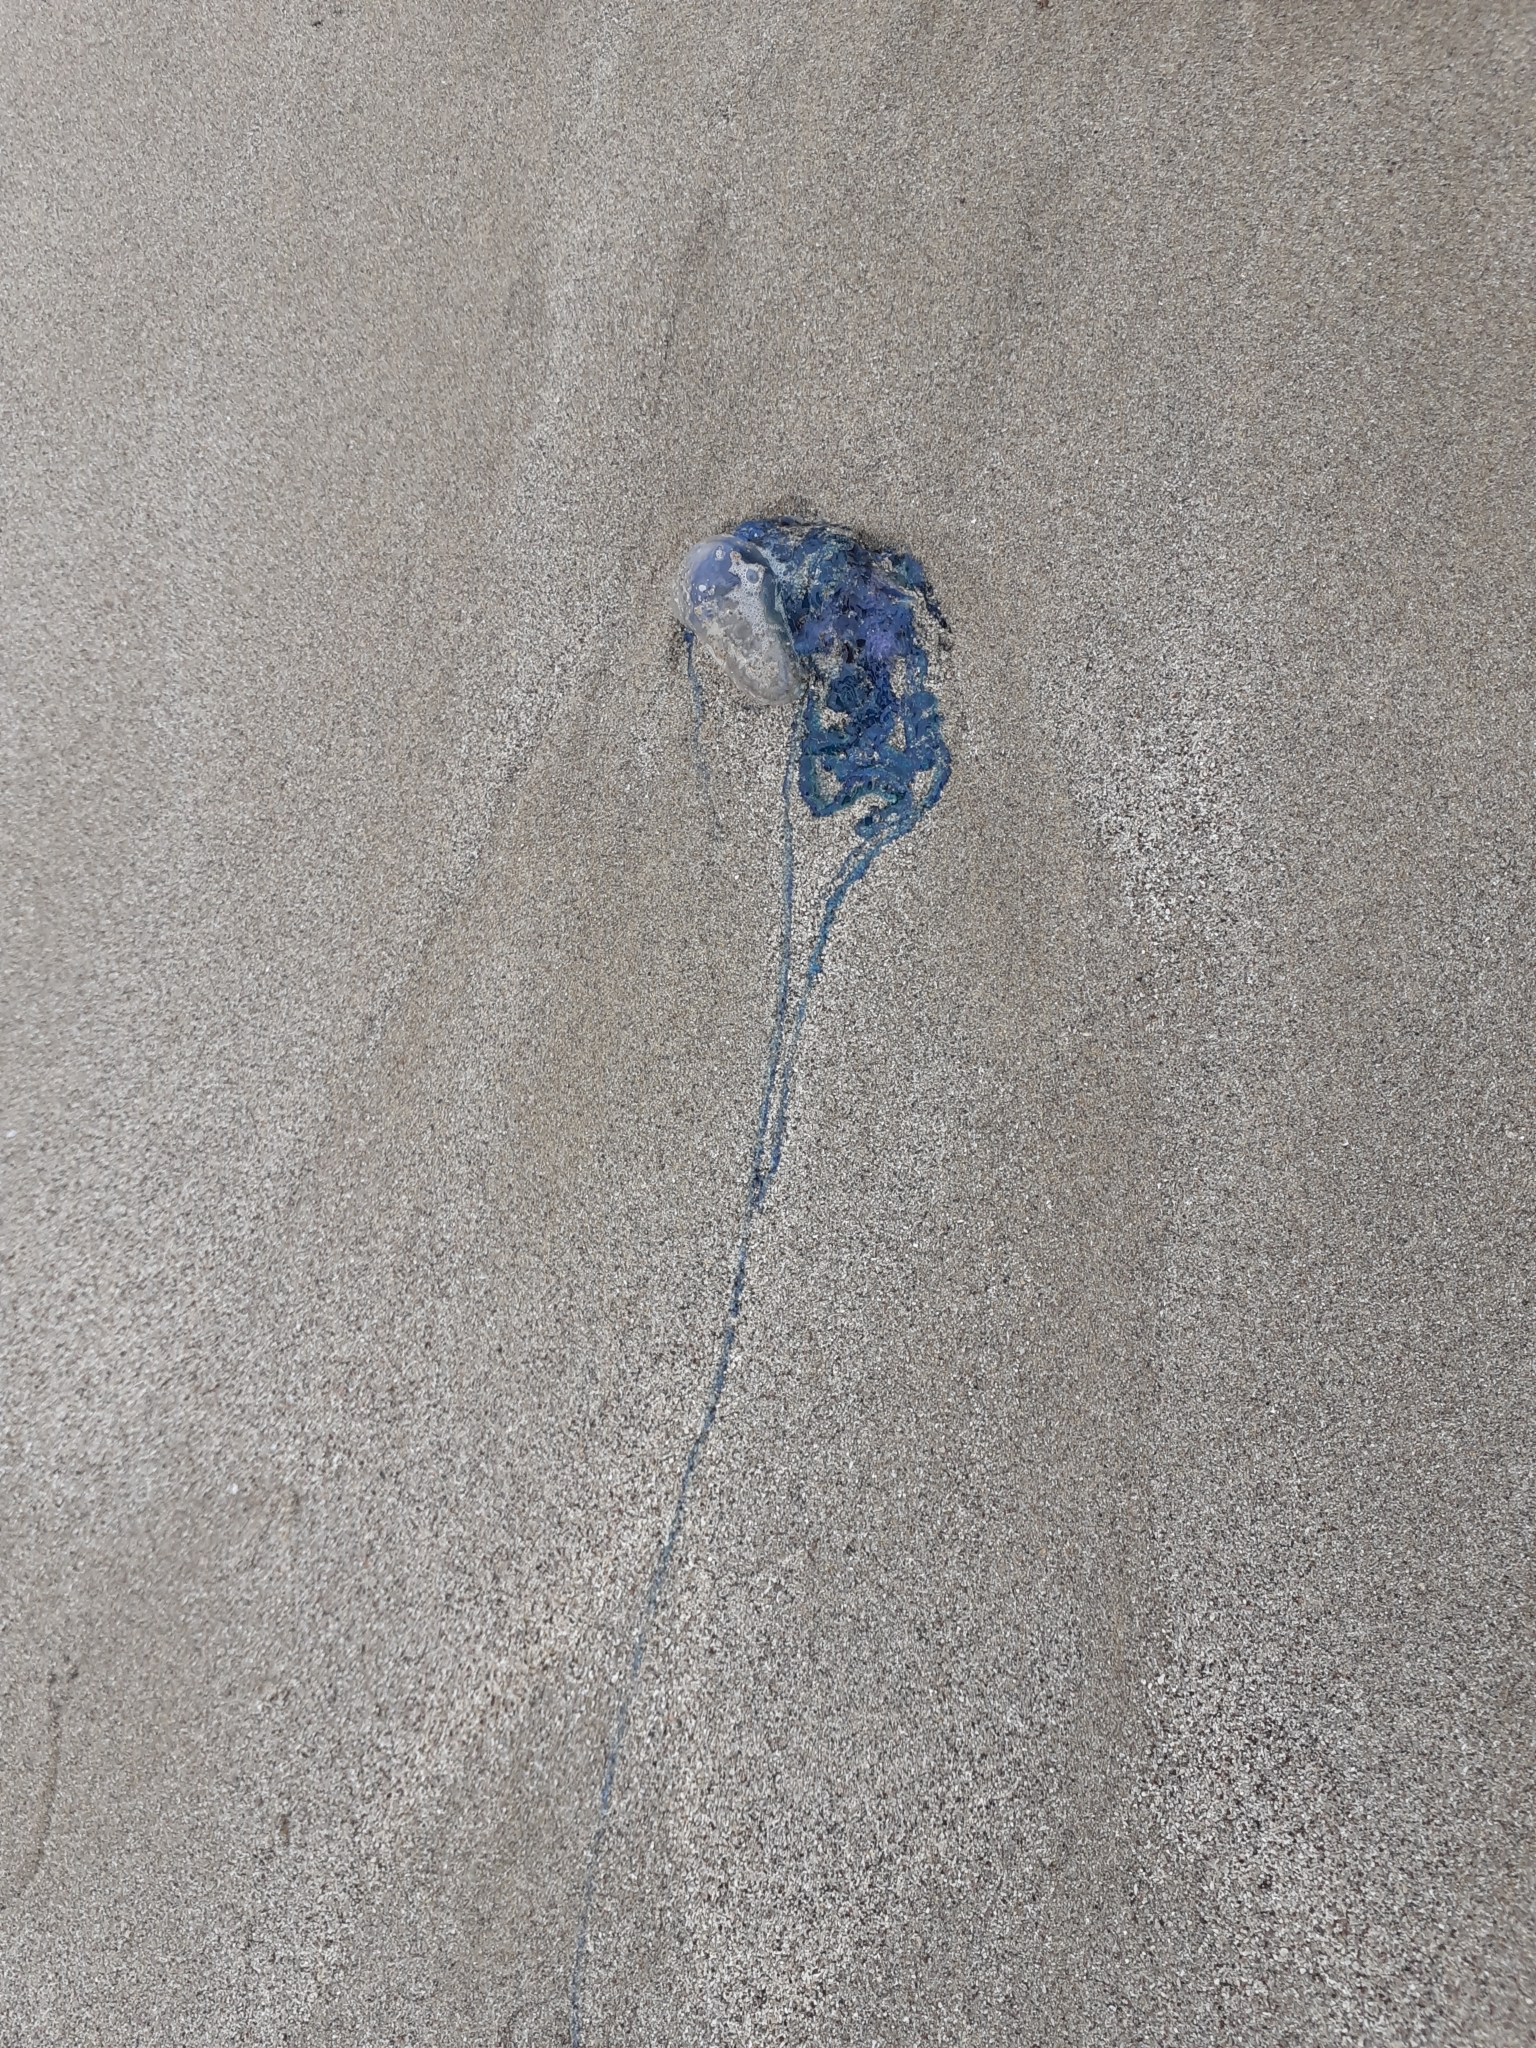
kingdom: Animalia
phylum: Cnidaria
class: Hydrozoa
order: Siphonophorae
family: Physaliidae
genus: Physalia
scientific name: Physalia physalis
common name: Portuguese man-of-war
